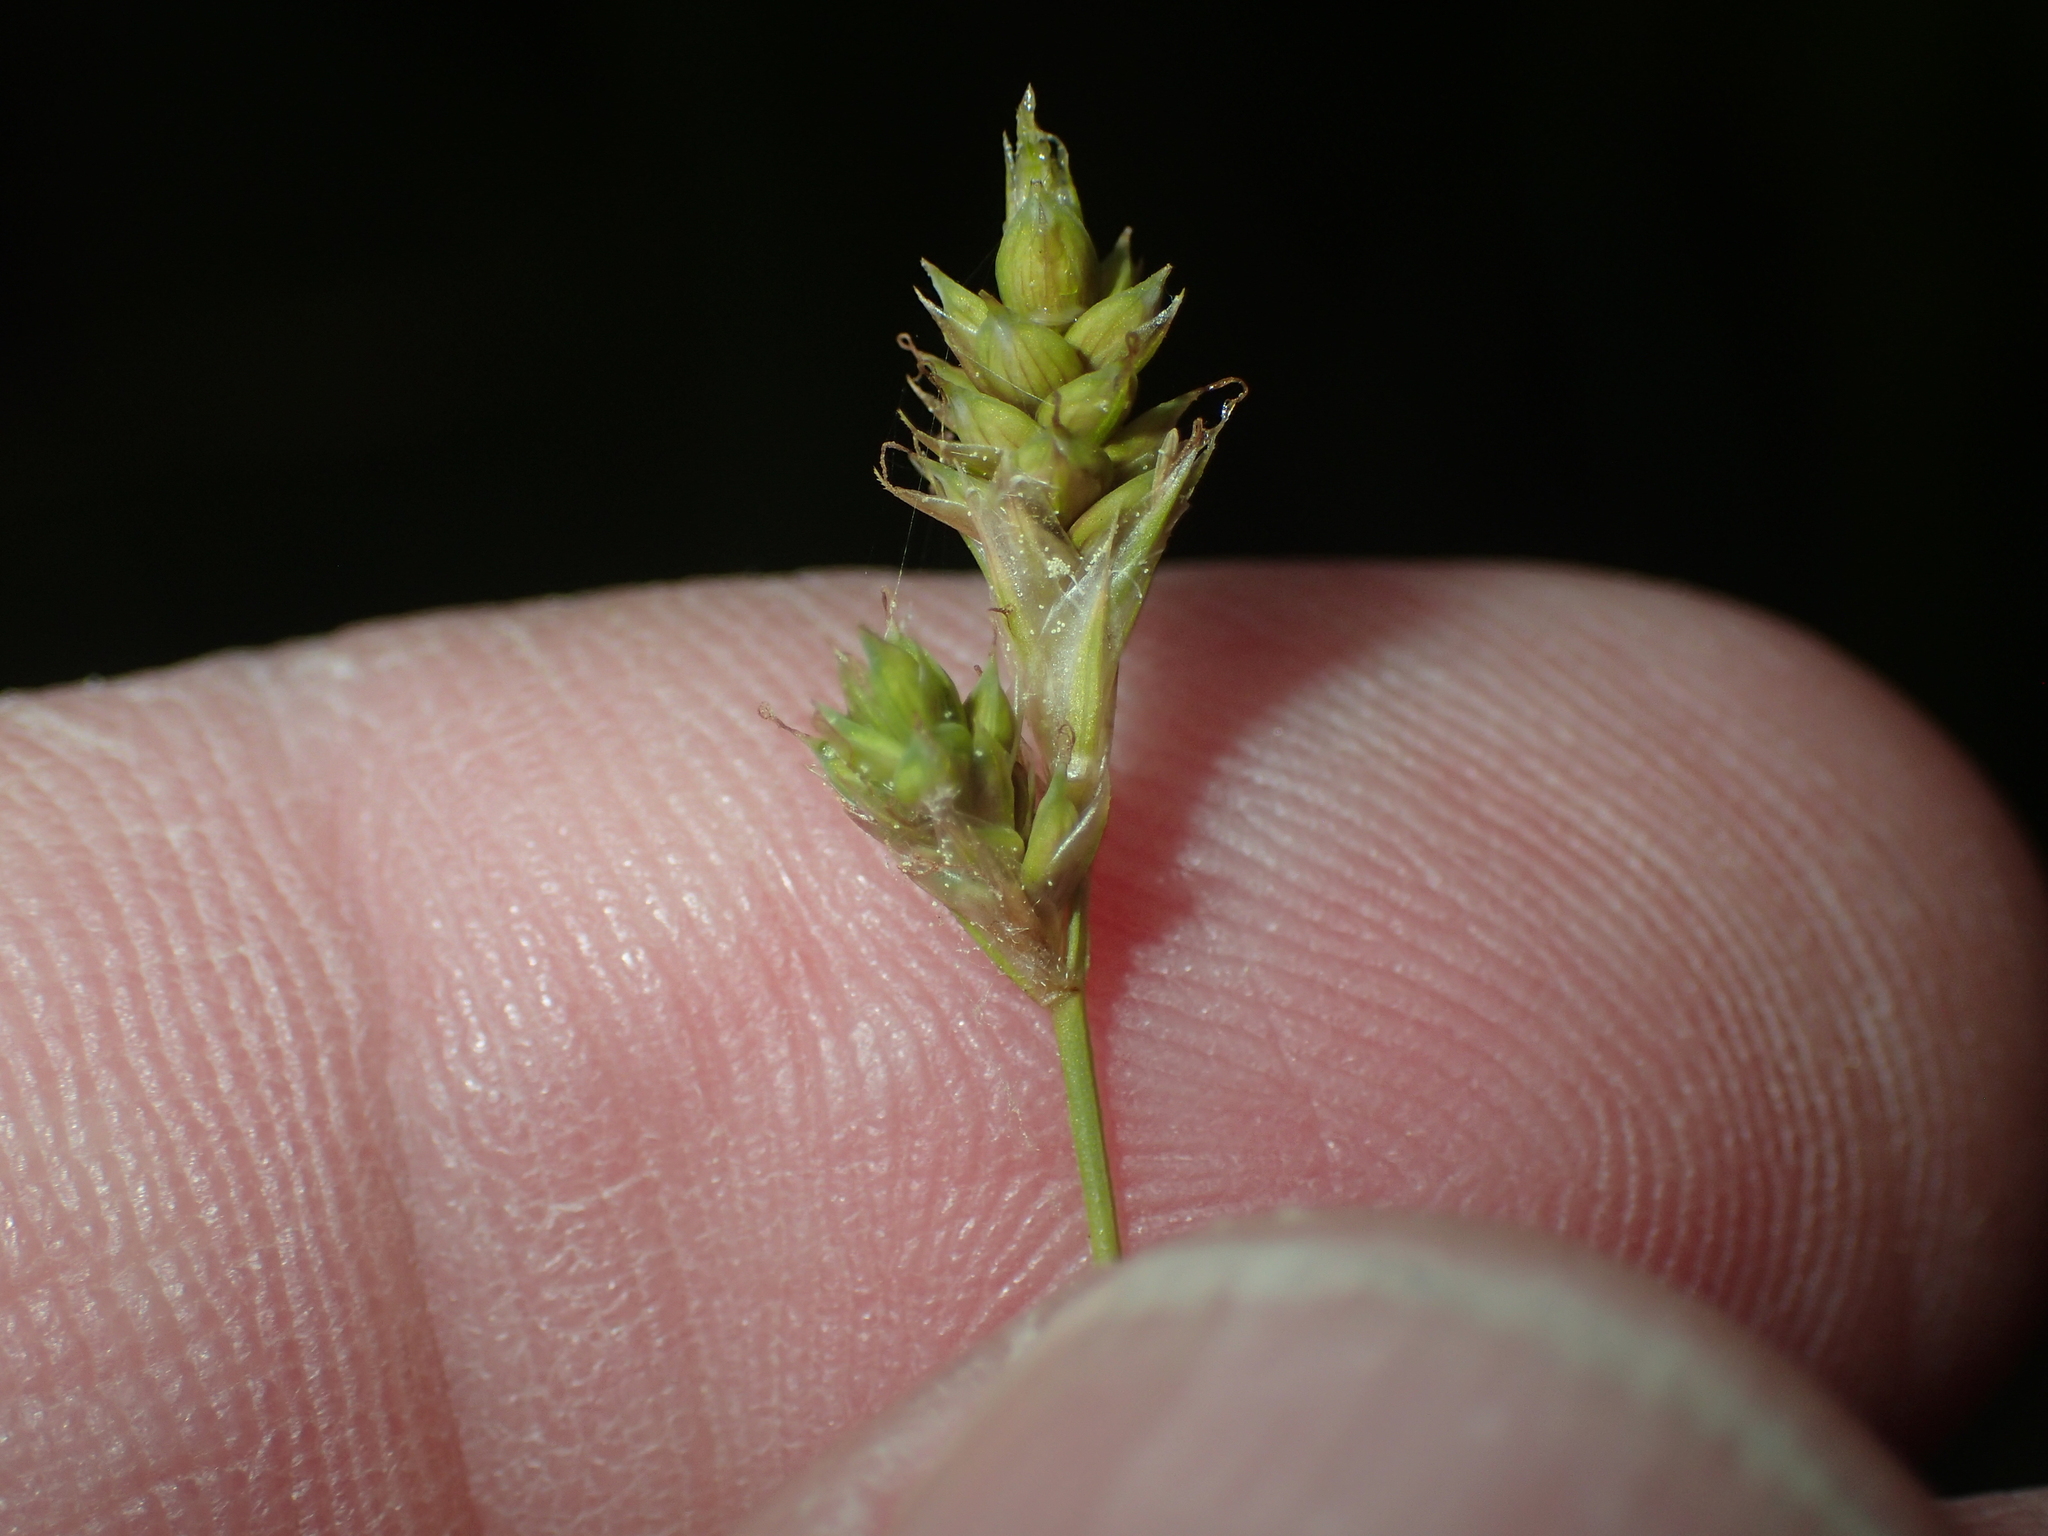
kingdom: Plantae
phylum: Tracheophyta
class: Liliopsida
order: Poales
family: Cyperaceae
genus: Carex
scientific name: Carex canescens
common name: White sedge
